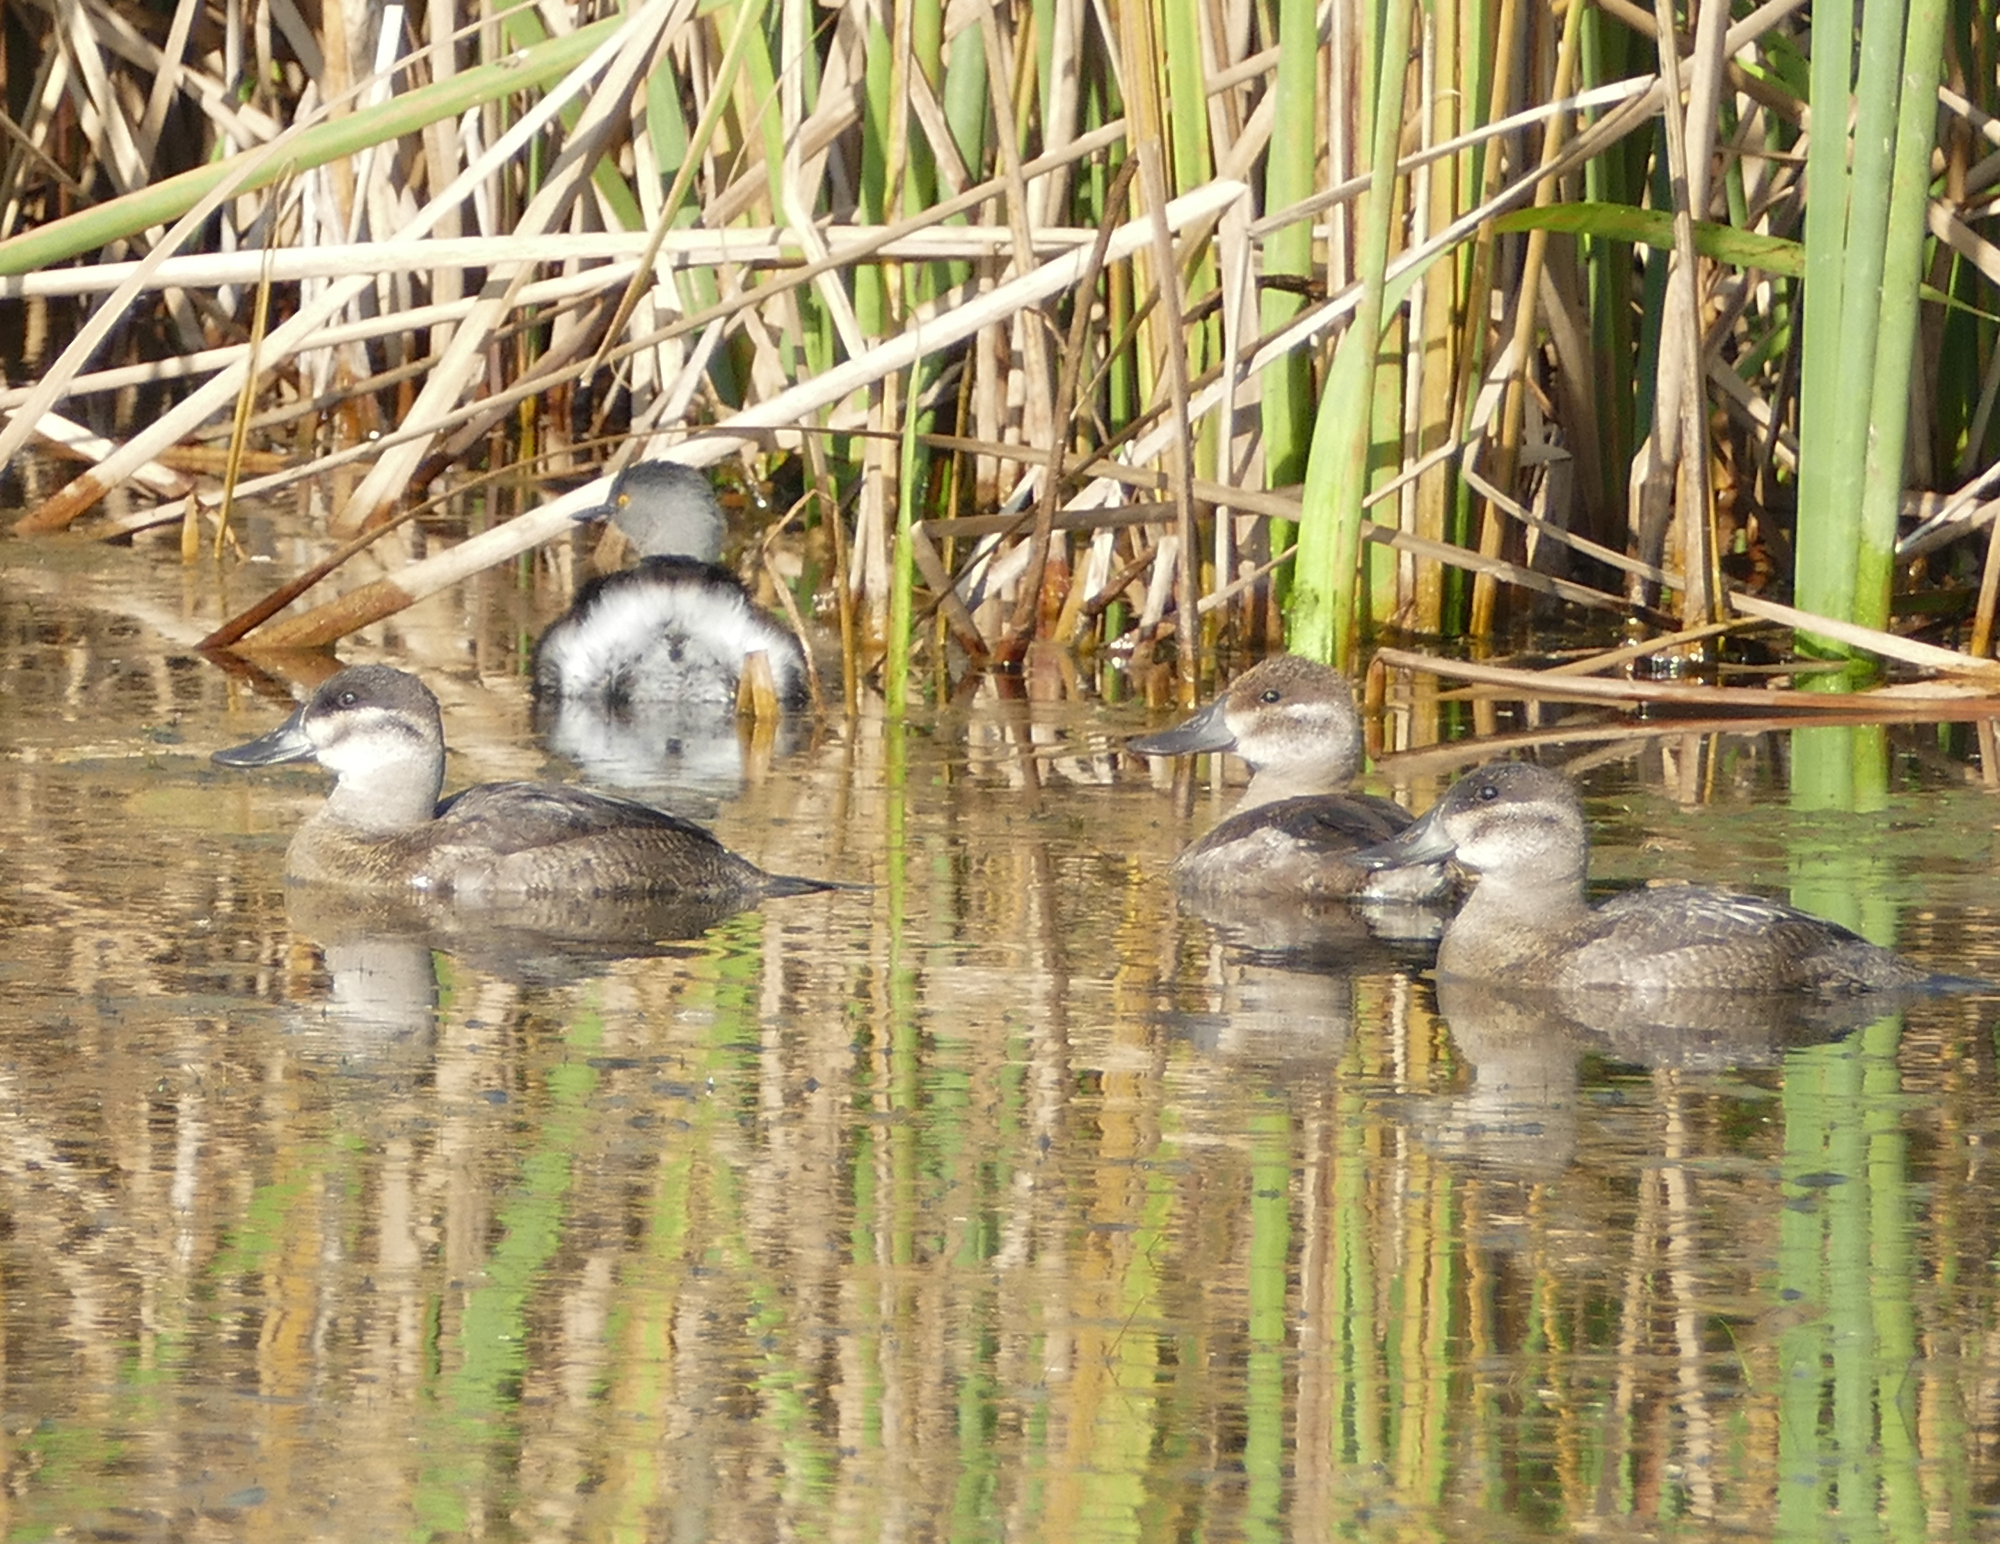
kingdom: Animalia
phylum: Chordata
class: Aves
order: Anseriformes
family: Anatidae
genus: Oxyura
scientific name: Oxyura jamaicensis
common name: Ruddy duck
